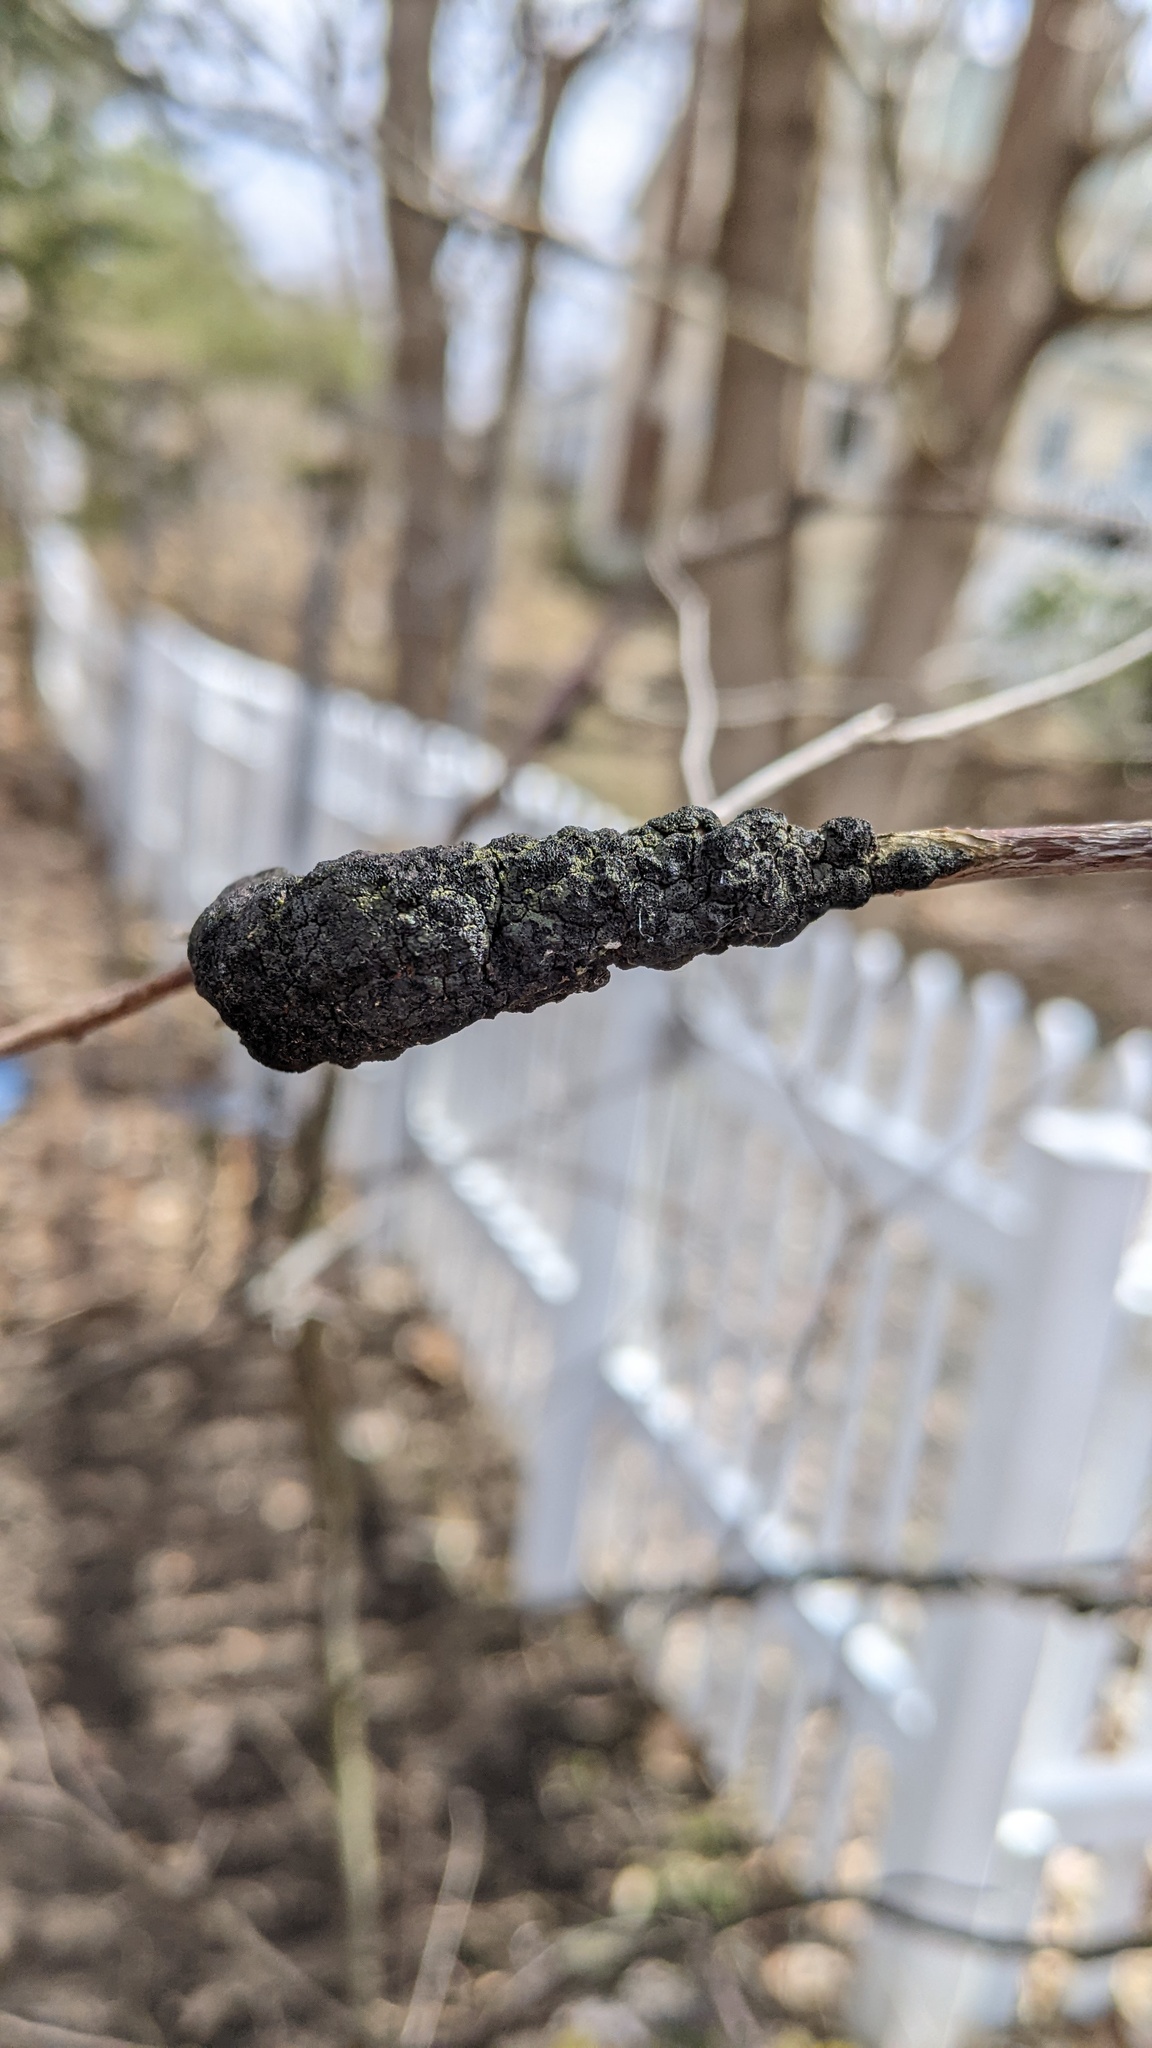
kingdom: Fungi
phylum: Ascomycota
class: Dothideomycetes
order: Venturiales
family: Venturiaceae
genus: Apiosporina
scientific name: Apiosporina morbosa
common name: Black knot
